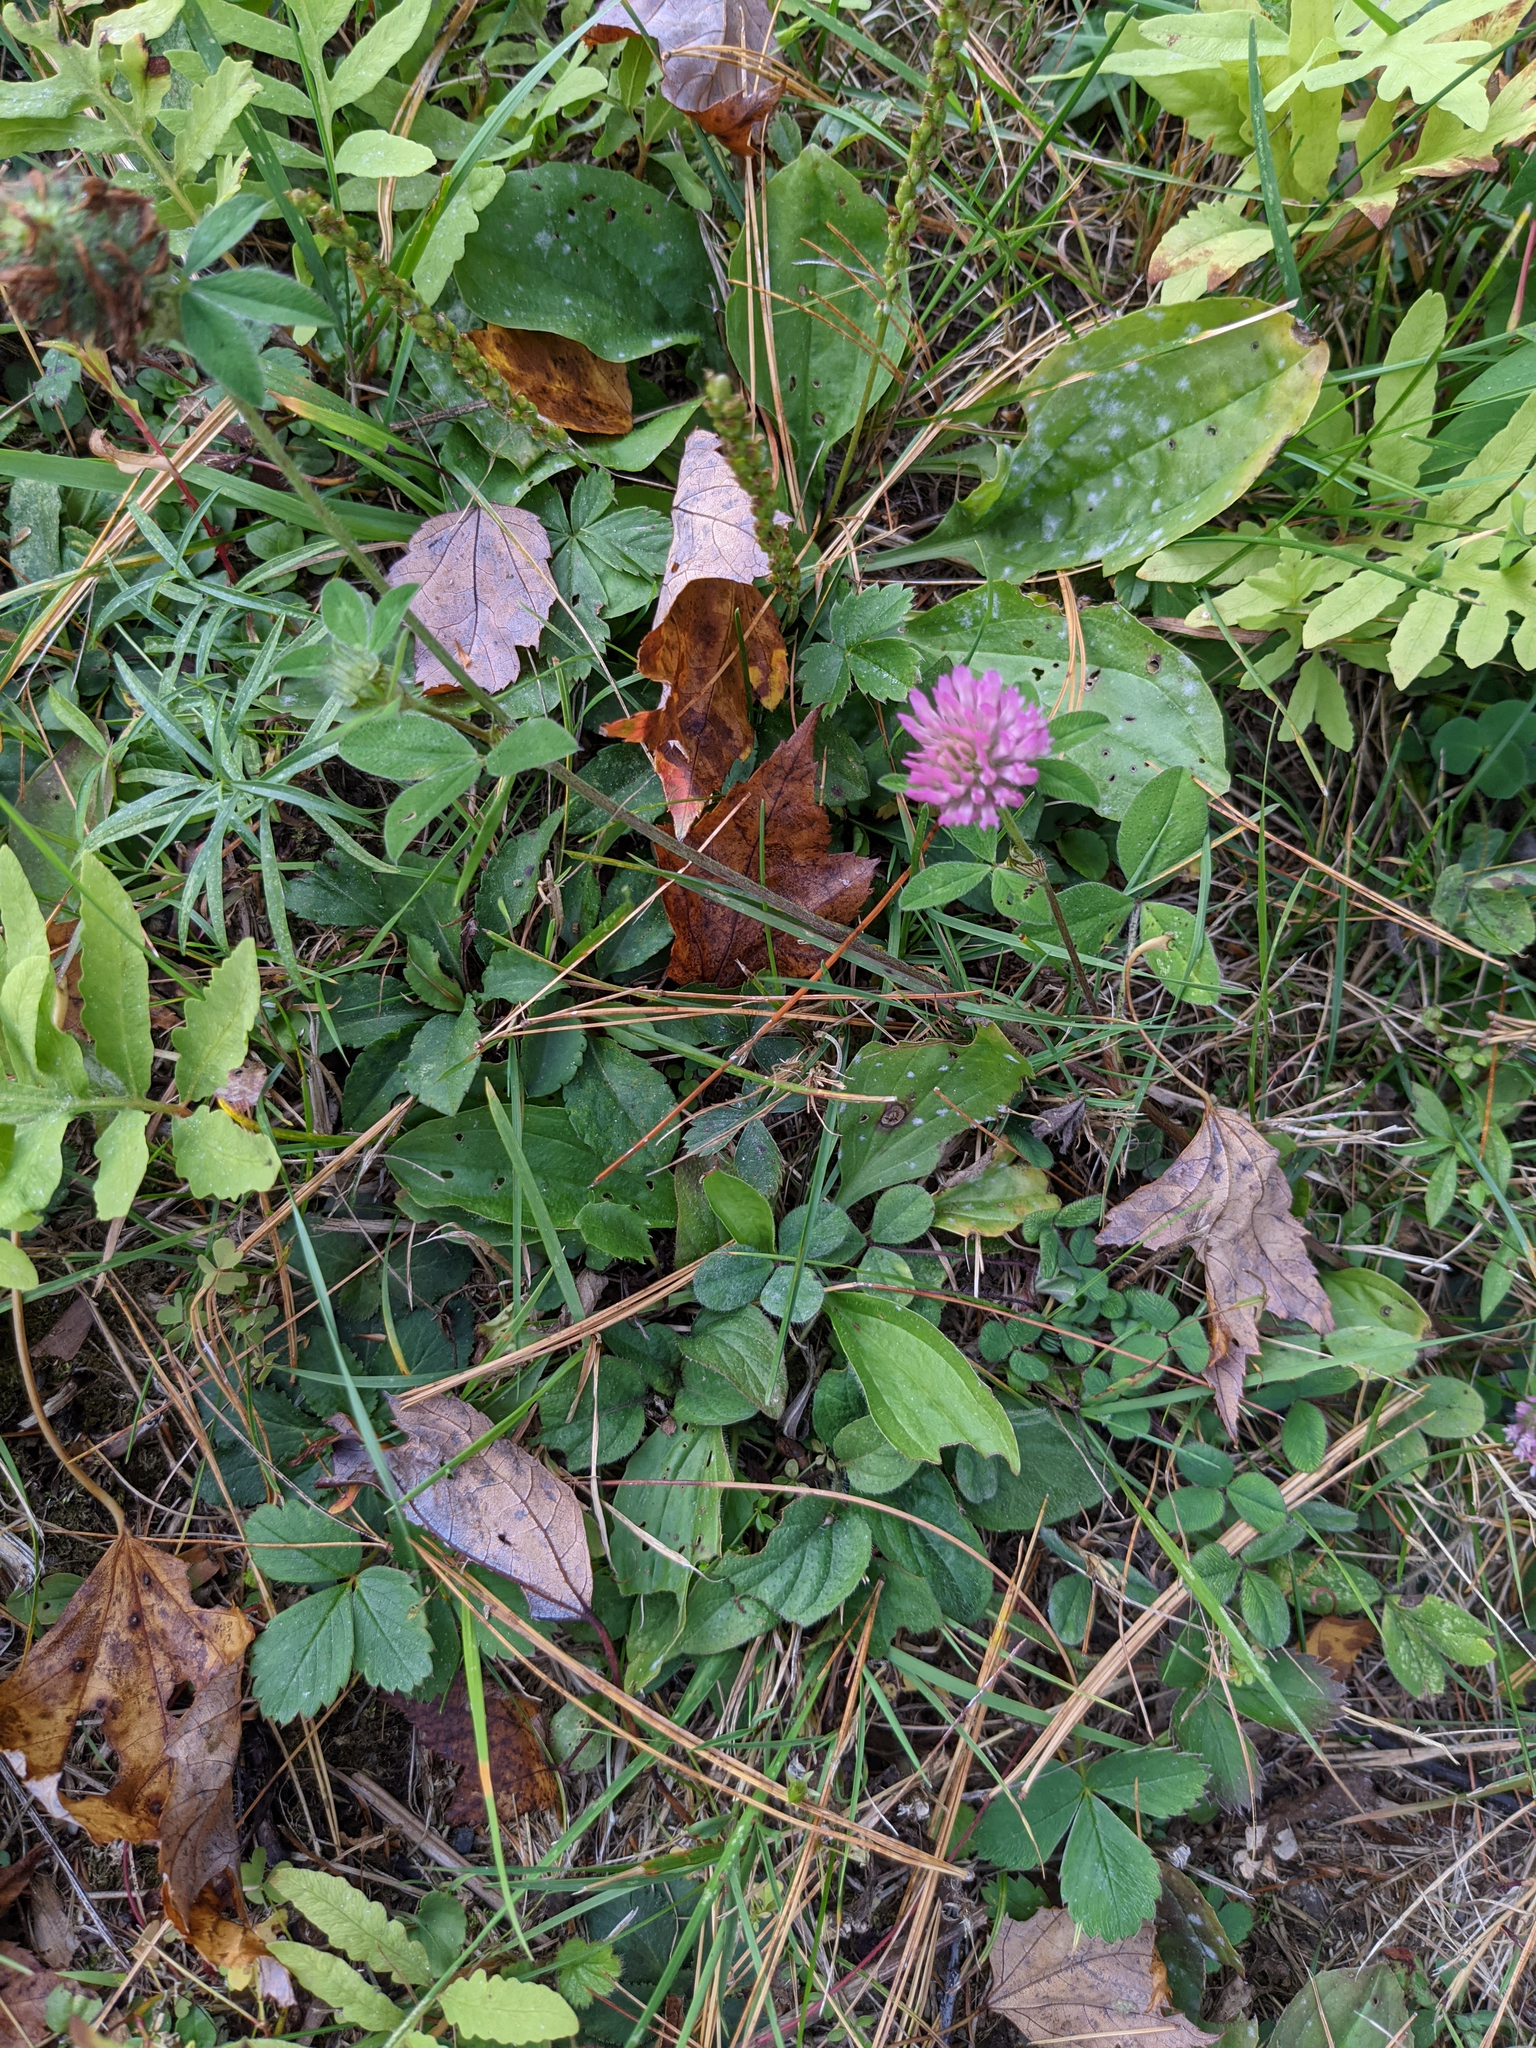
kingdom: Plantae
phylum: Tracheophyta
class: Magnoliopsida
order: Fabales
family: Fabaceae
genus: Trifolium
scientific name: Trifolium pratense
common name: Red clover
